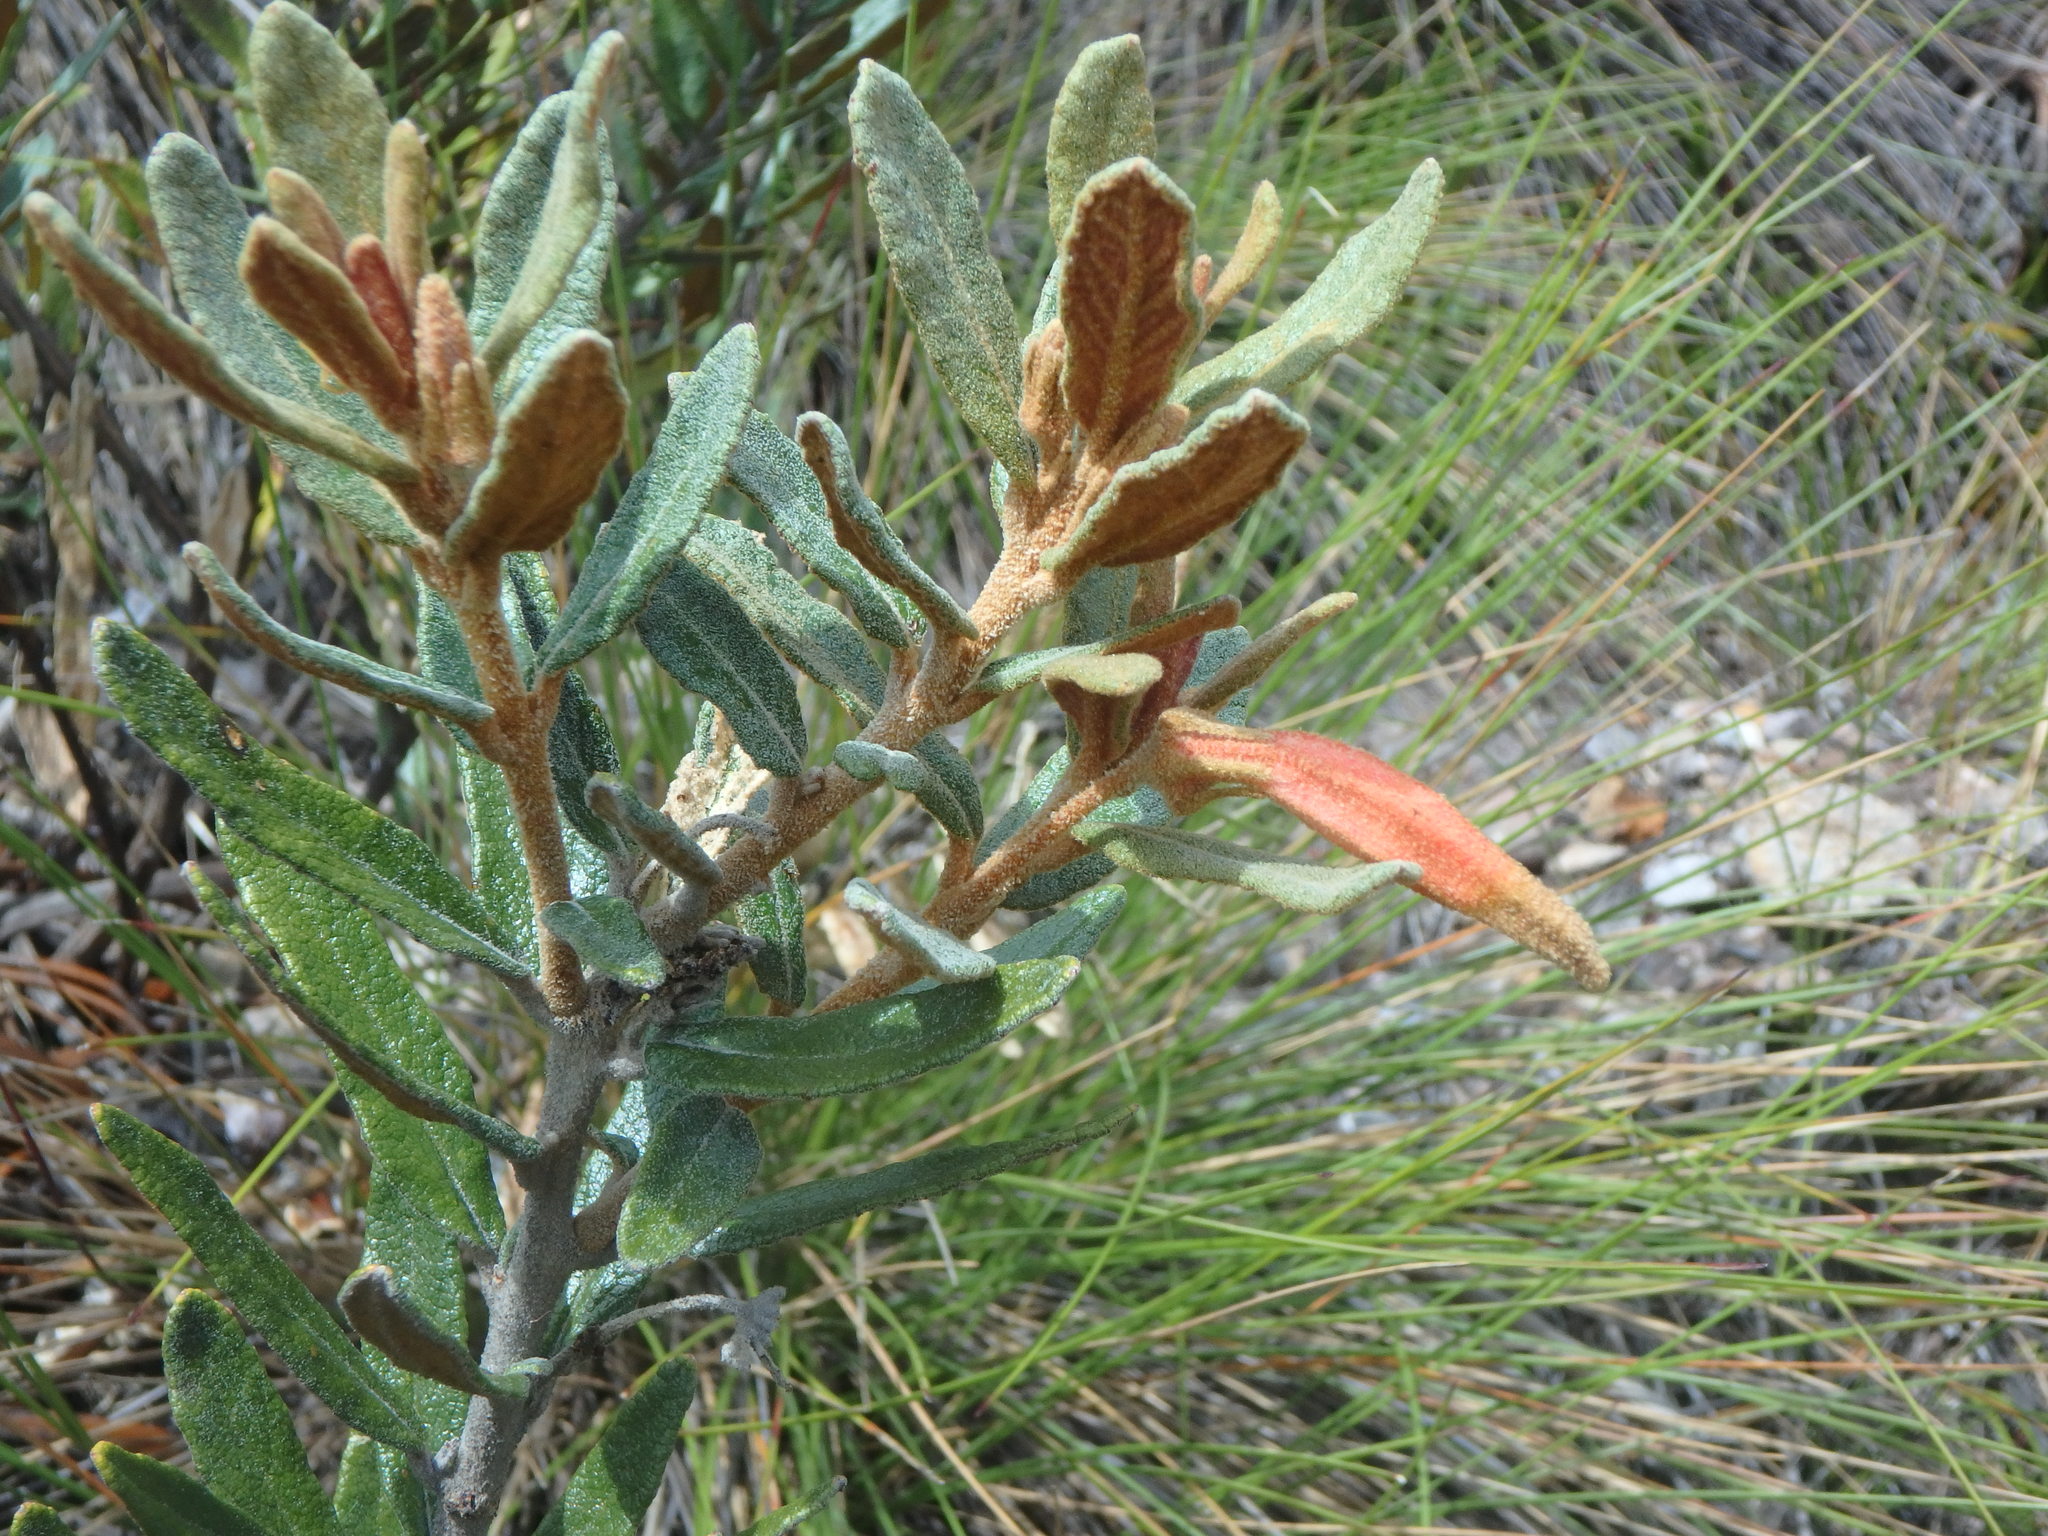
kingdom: Plantae
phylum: Tracheophyta
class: Magnoliopsida
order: Asterales
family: Campanulaceae
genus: Siphocampylus
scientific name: Siphocampylus columnae
